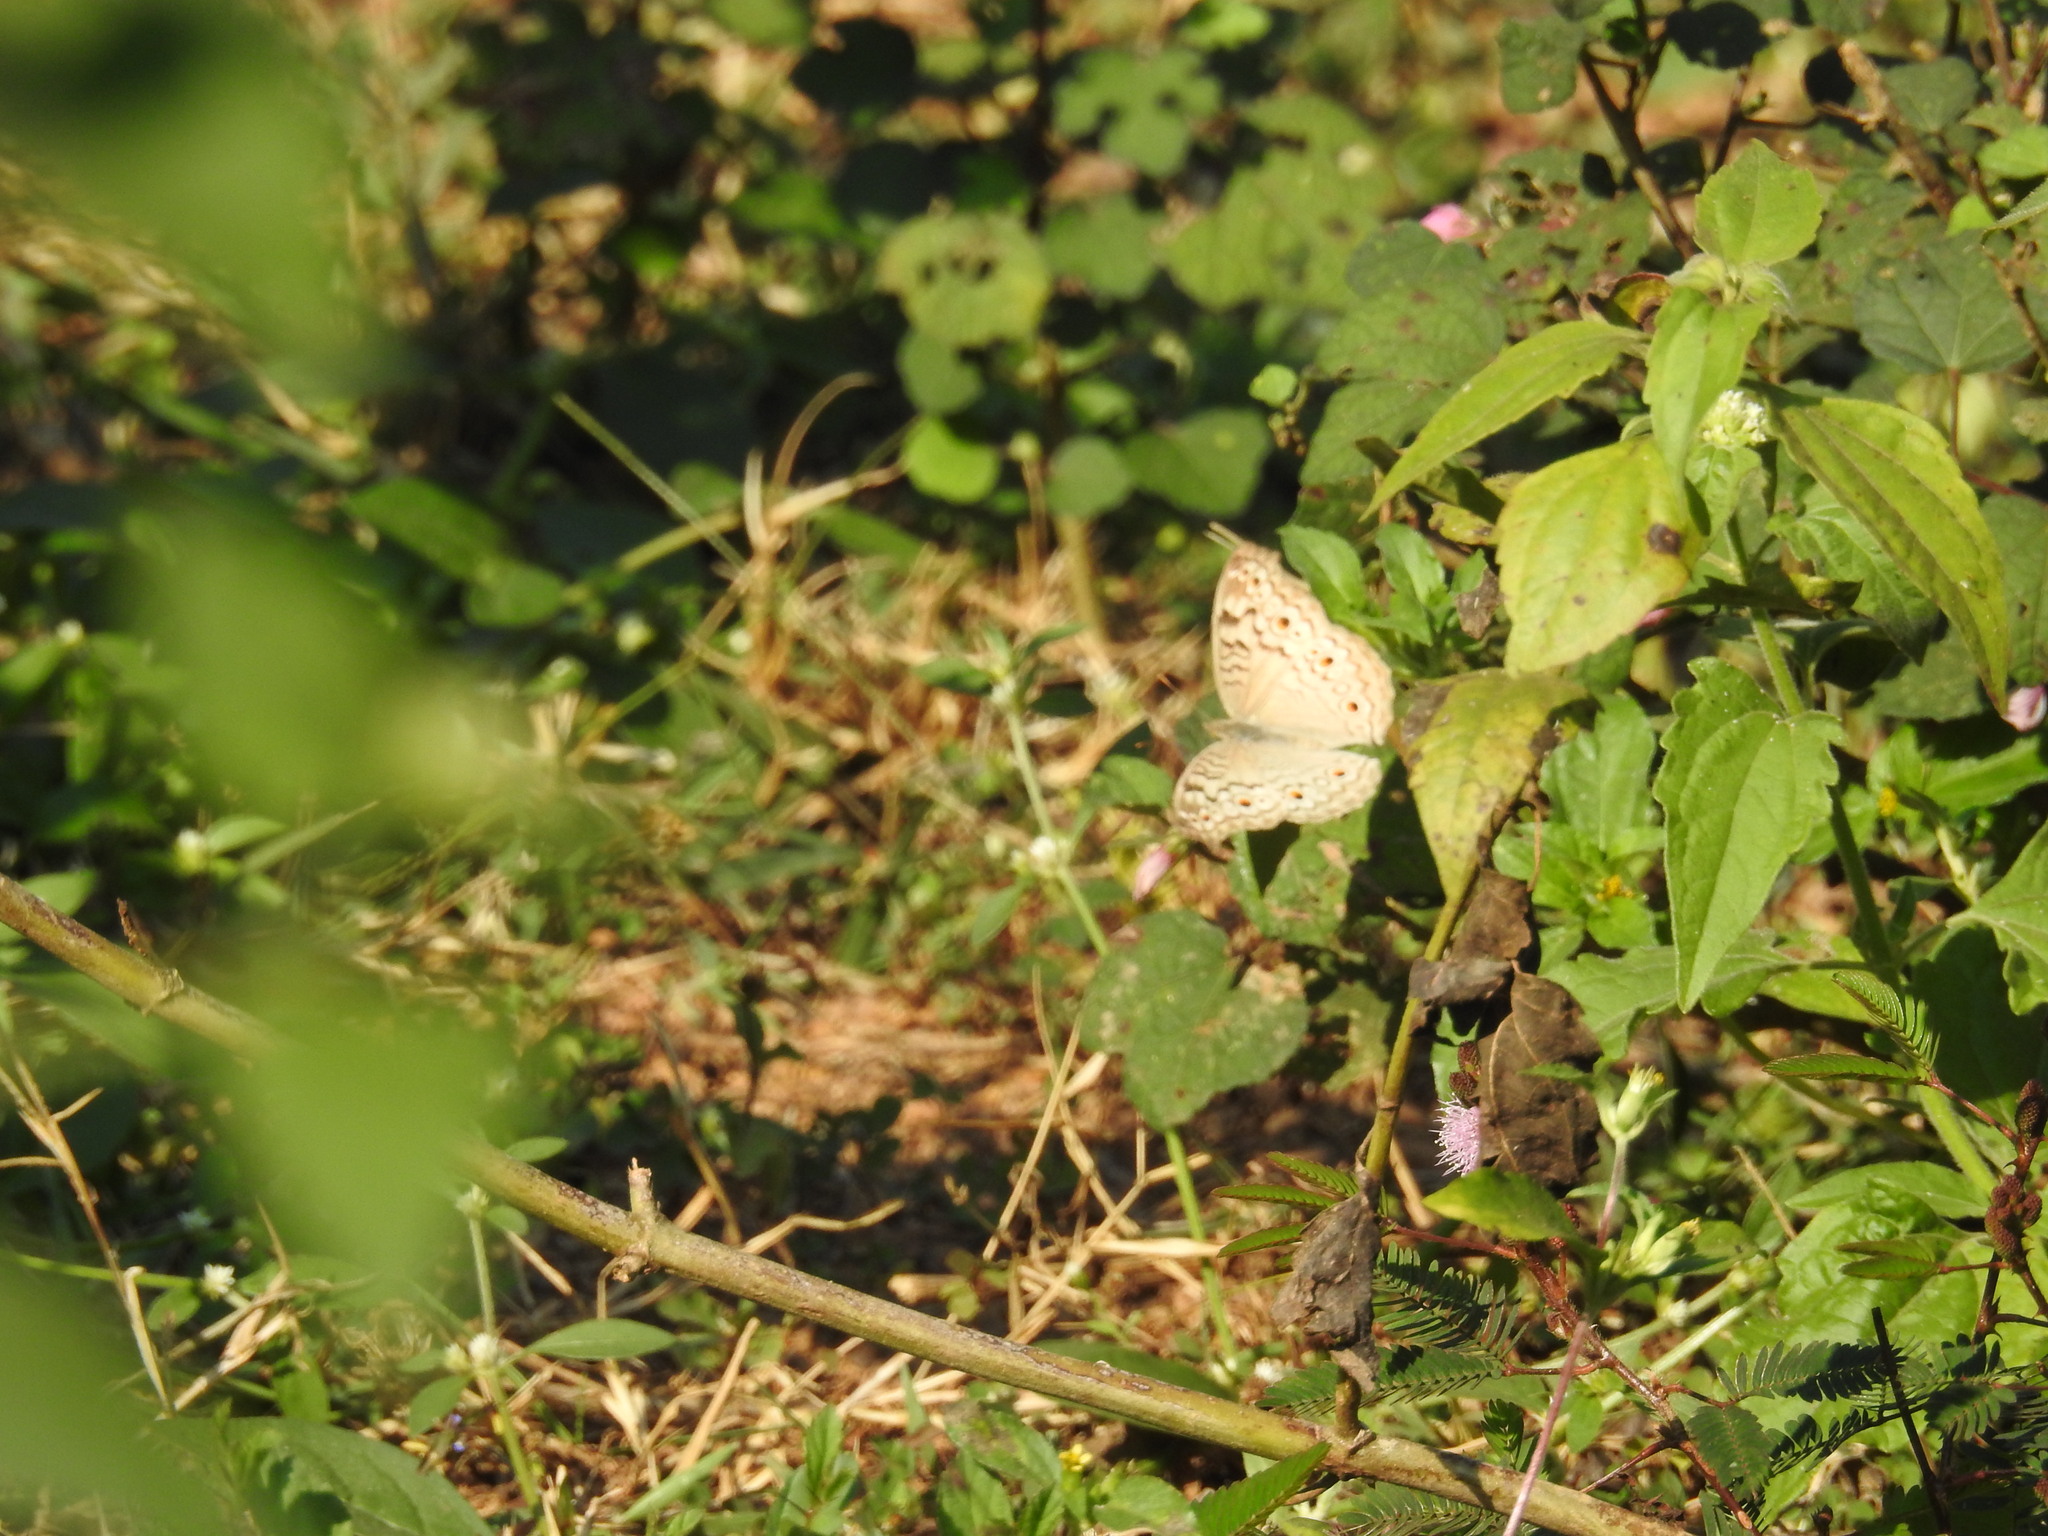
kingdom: Animalia
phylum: Arthropoda
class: Insecta
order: Lepidoptera
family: Nymphalidae
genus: Junonia
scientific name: Junonia atlites
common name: Grey pansy
